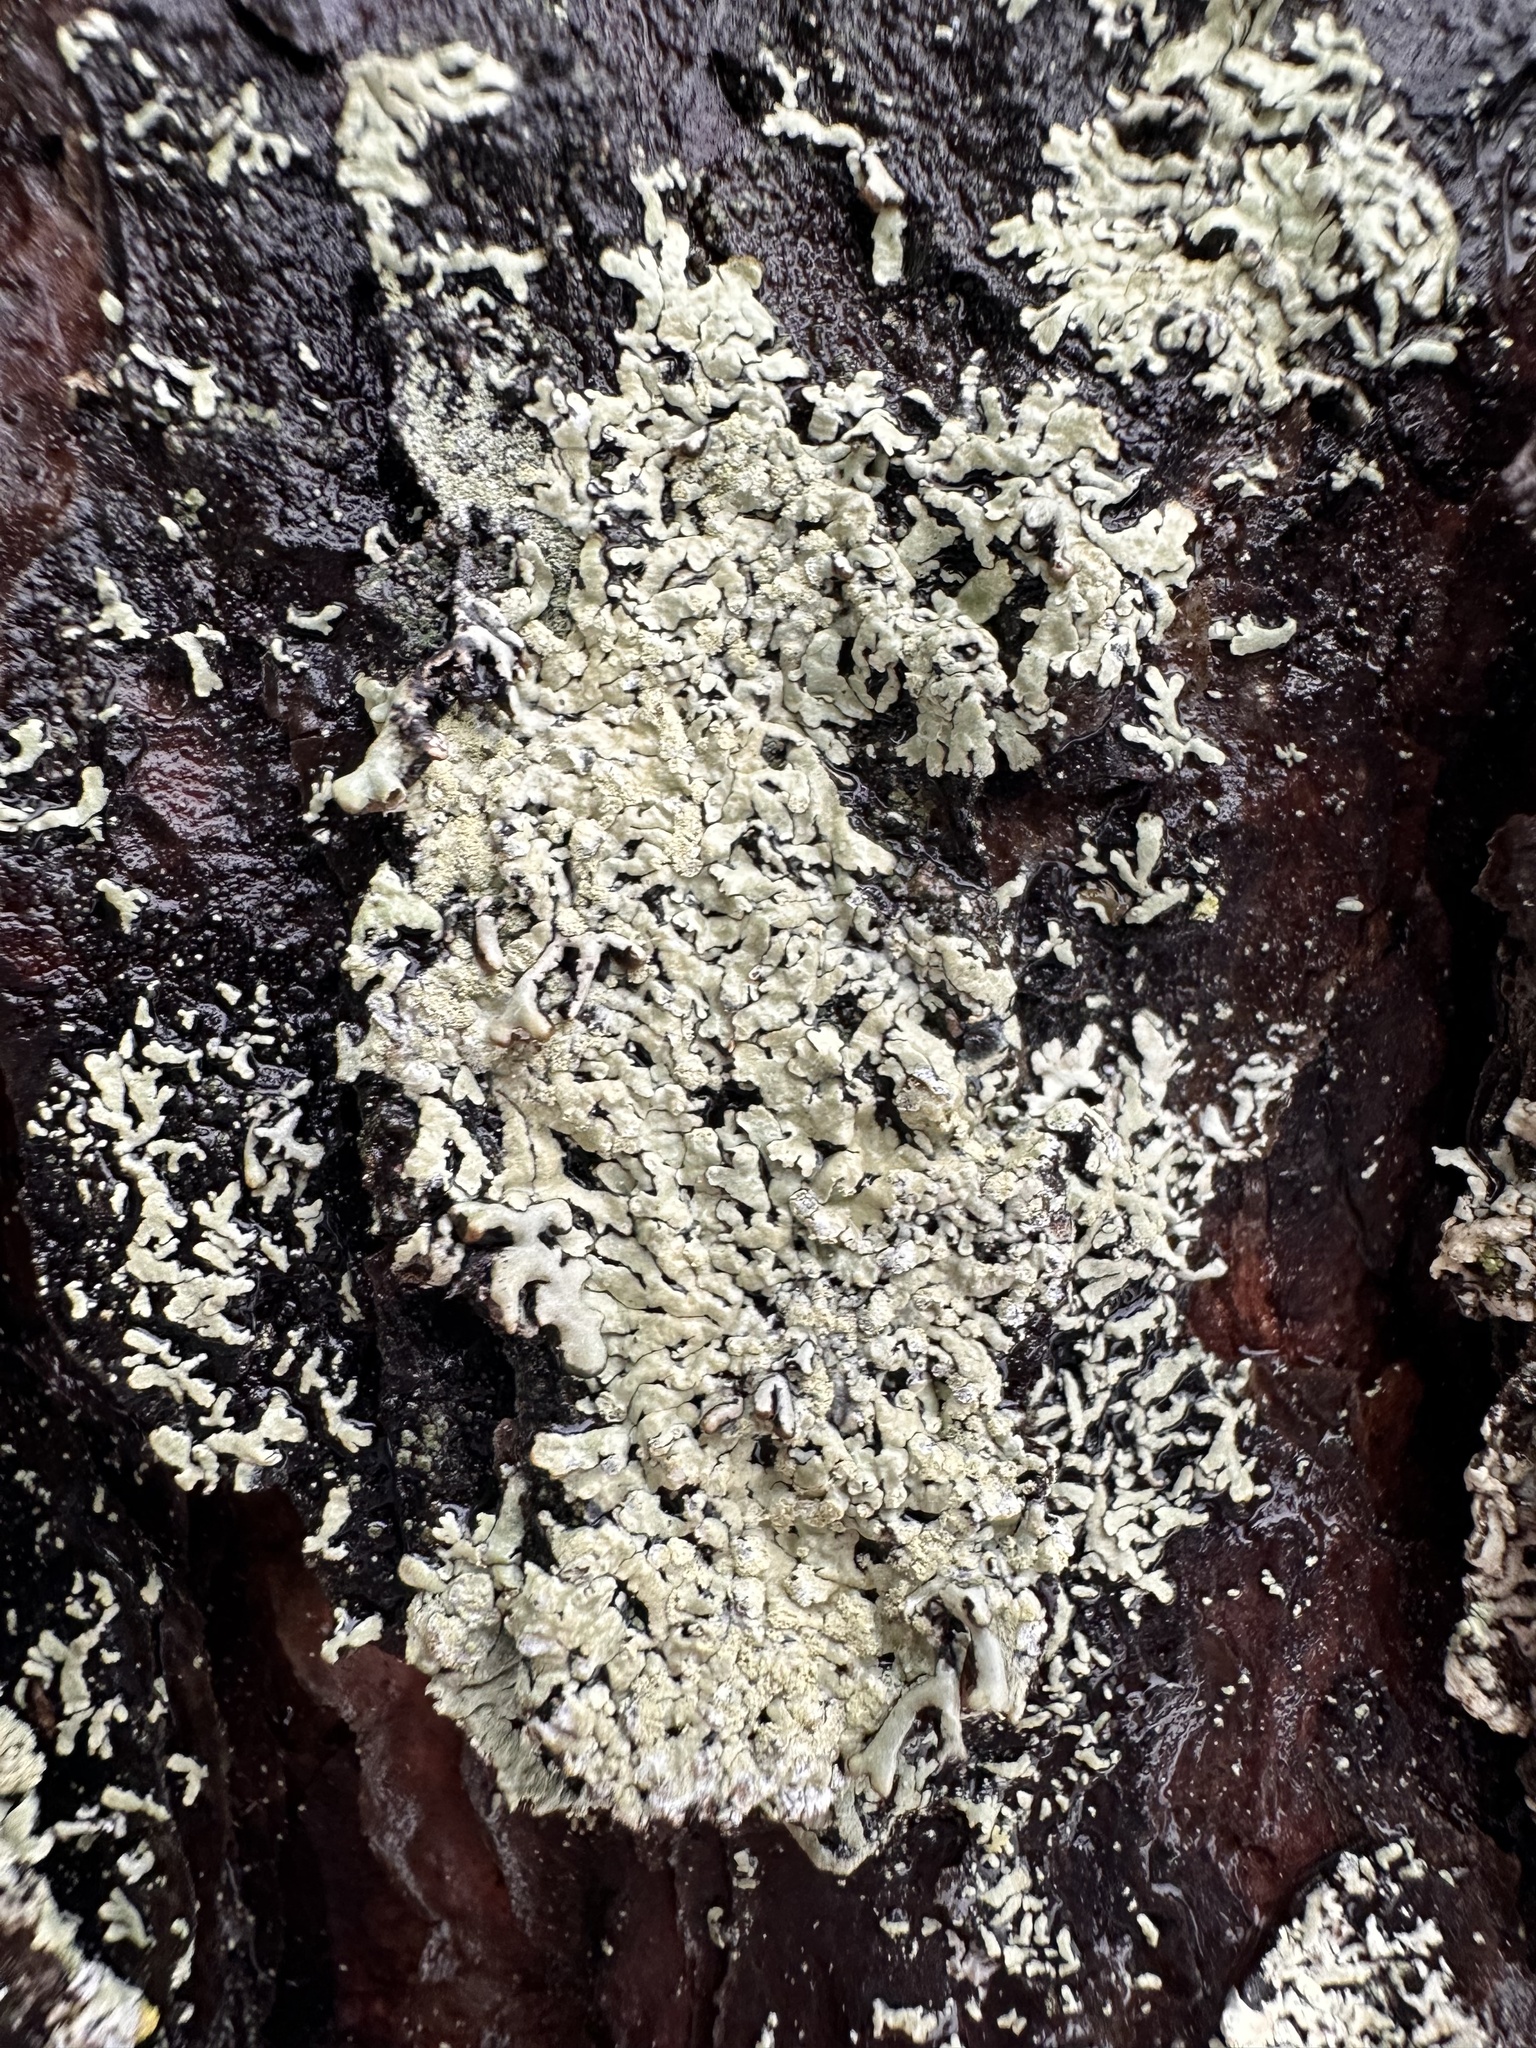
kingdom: Fungi
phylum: Ascomycota
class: Lecanoromycetes
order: Lecanorales
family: Parmeliaceae
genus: Parmeliopsis
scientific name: Parmeliopsis ambigua
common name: Green starburst lichen
